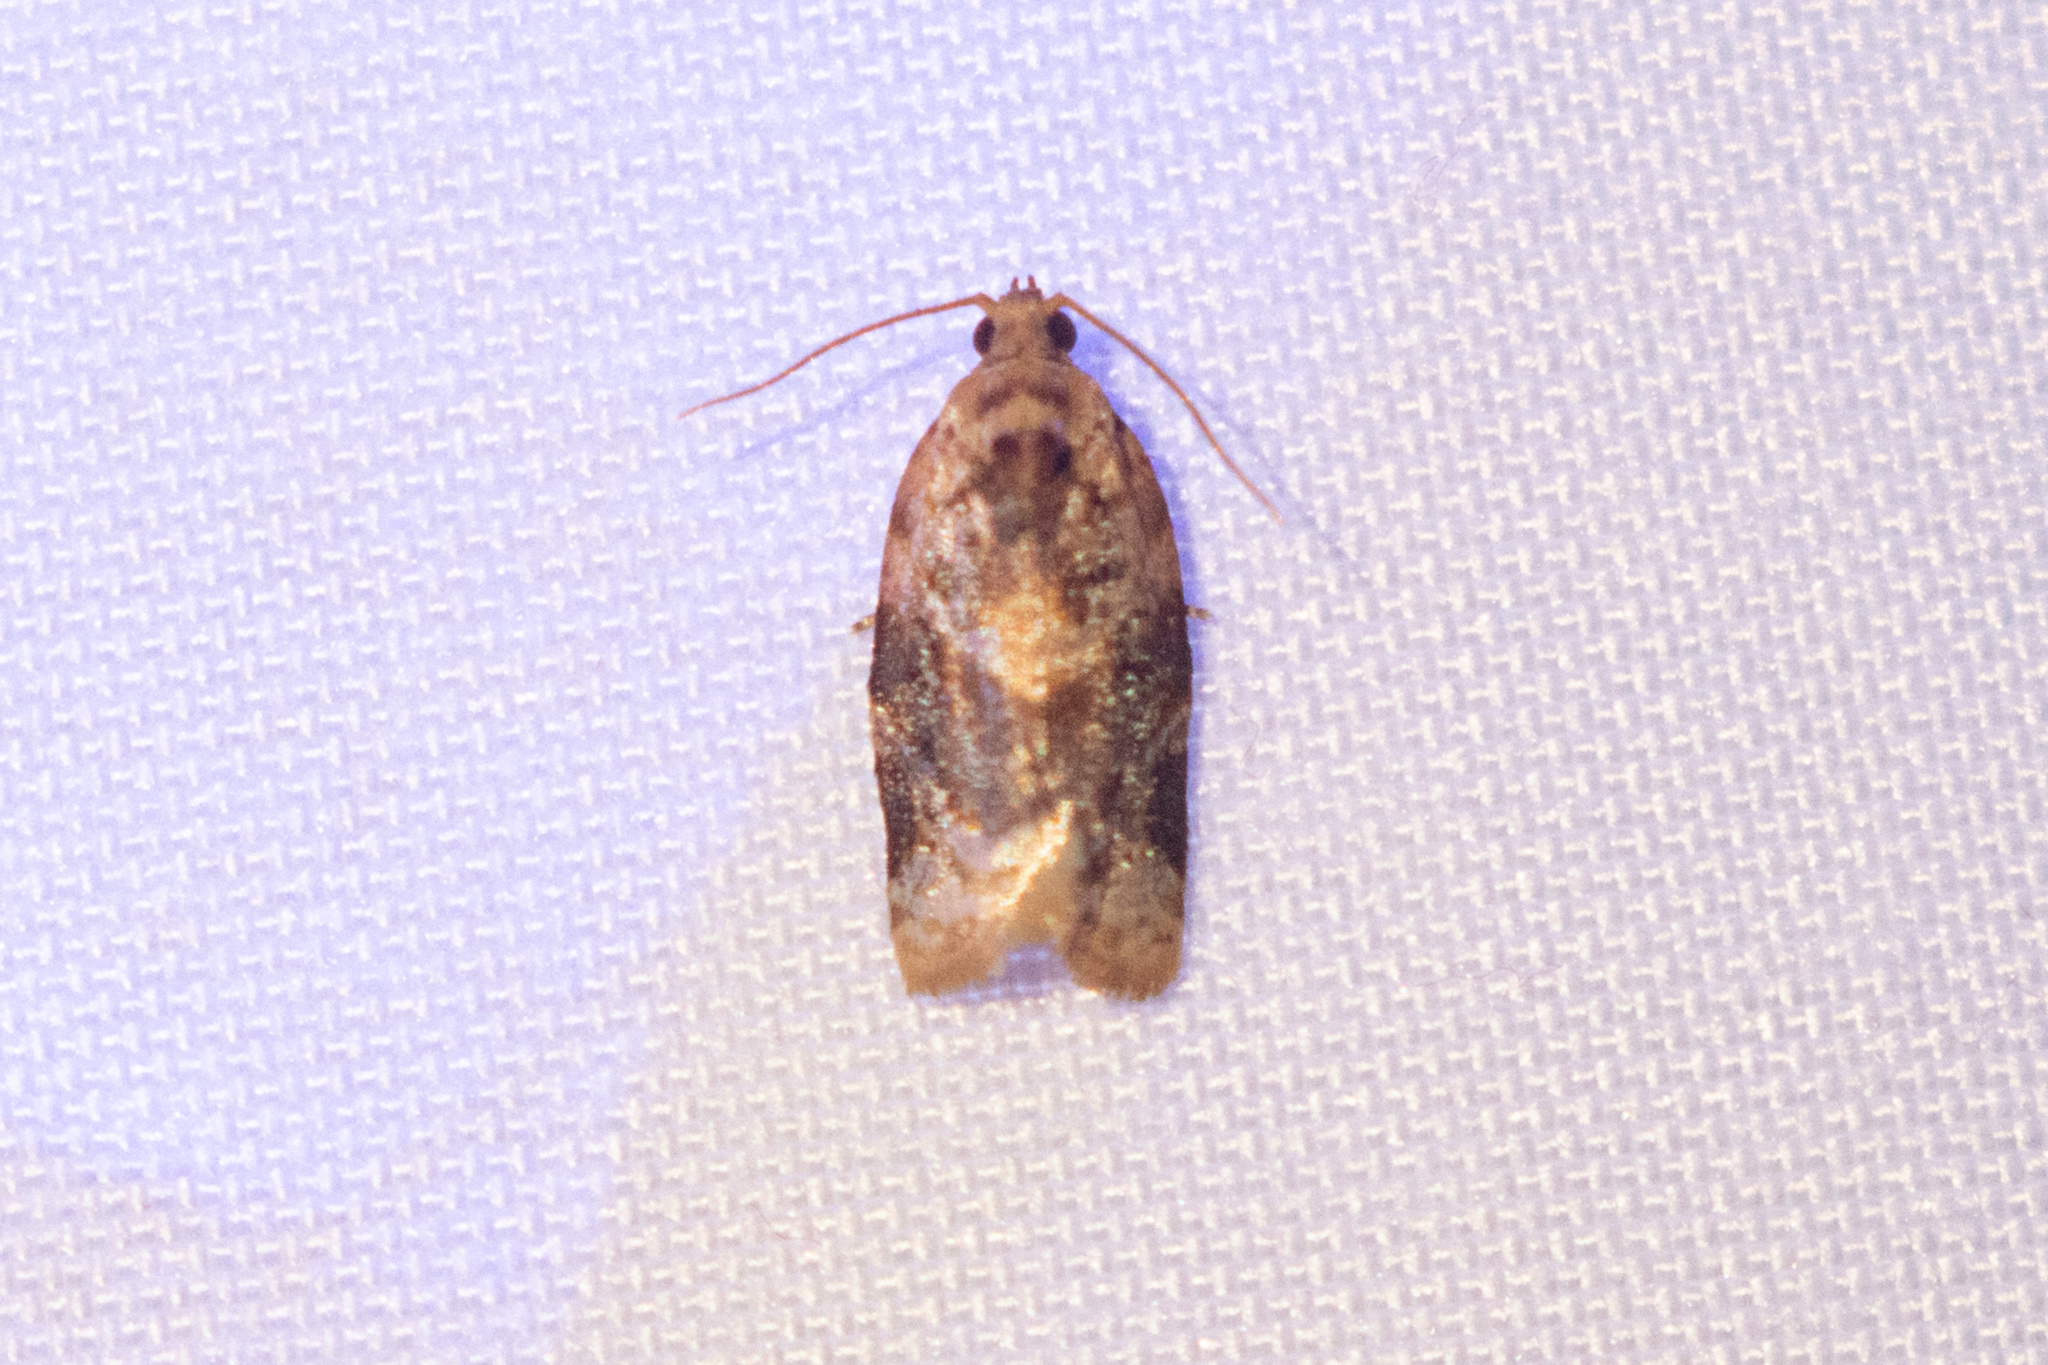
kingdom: Animalia
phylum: Arthropoda
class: Insecta
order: Lepidoptera
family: Tortricidae
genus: Argyrotaenia
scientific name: Argyrotaenia velutinana
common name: Red-banded leafroller moth
